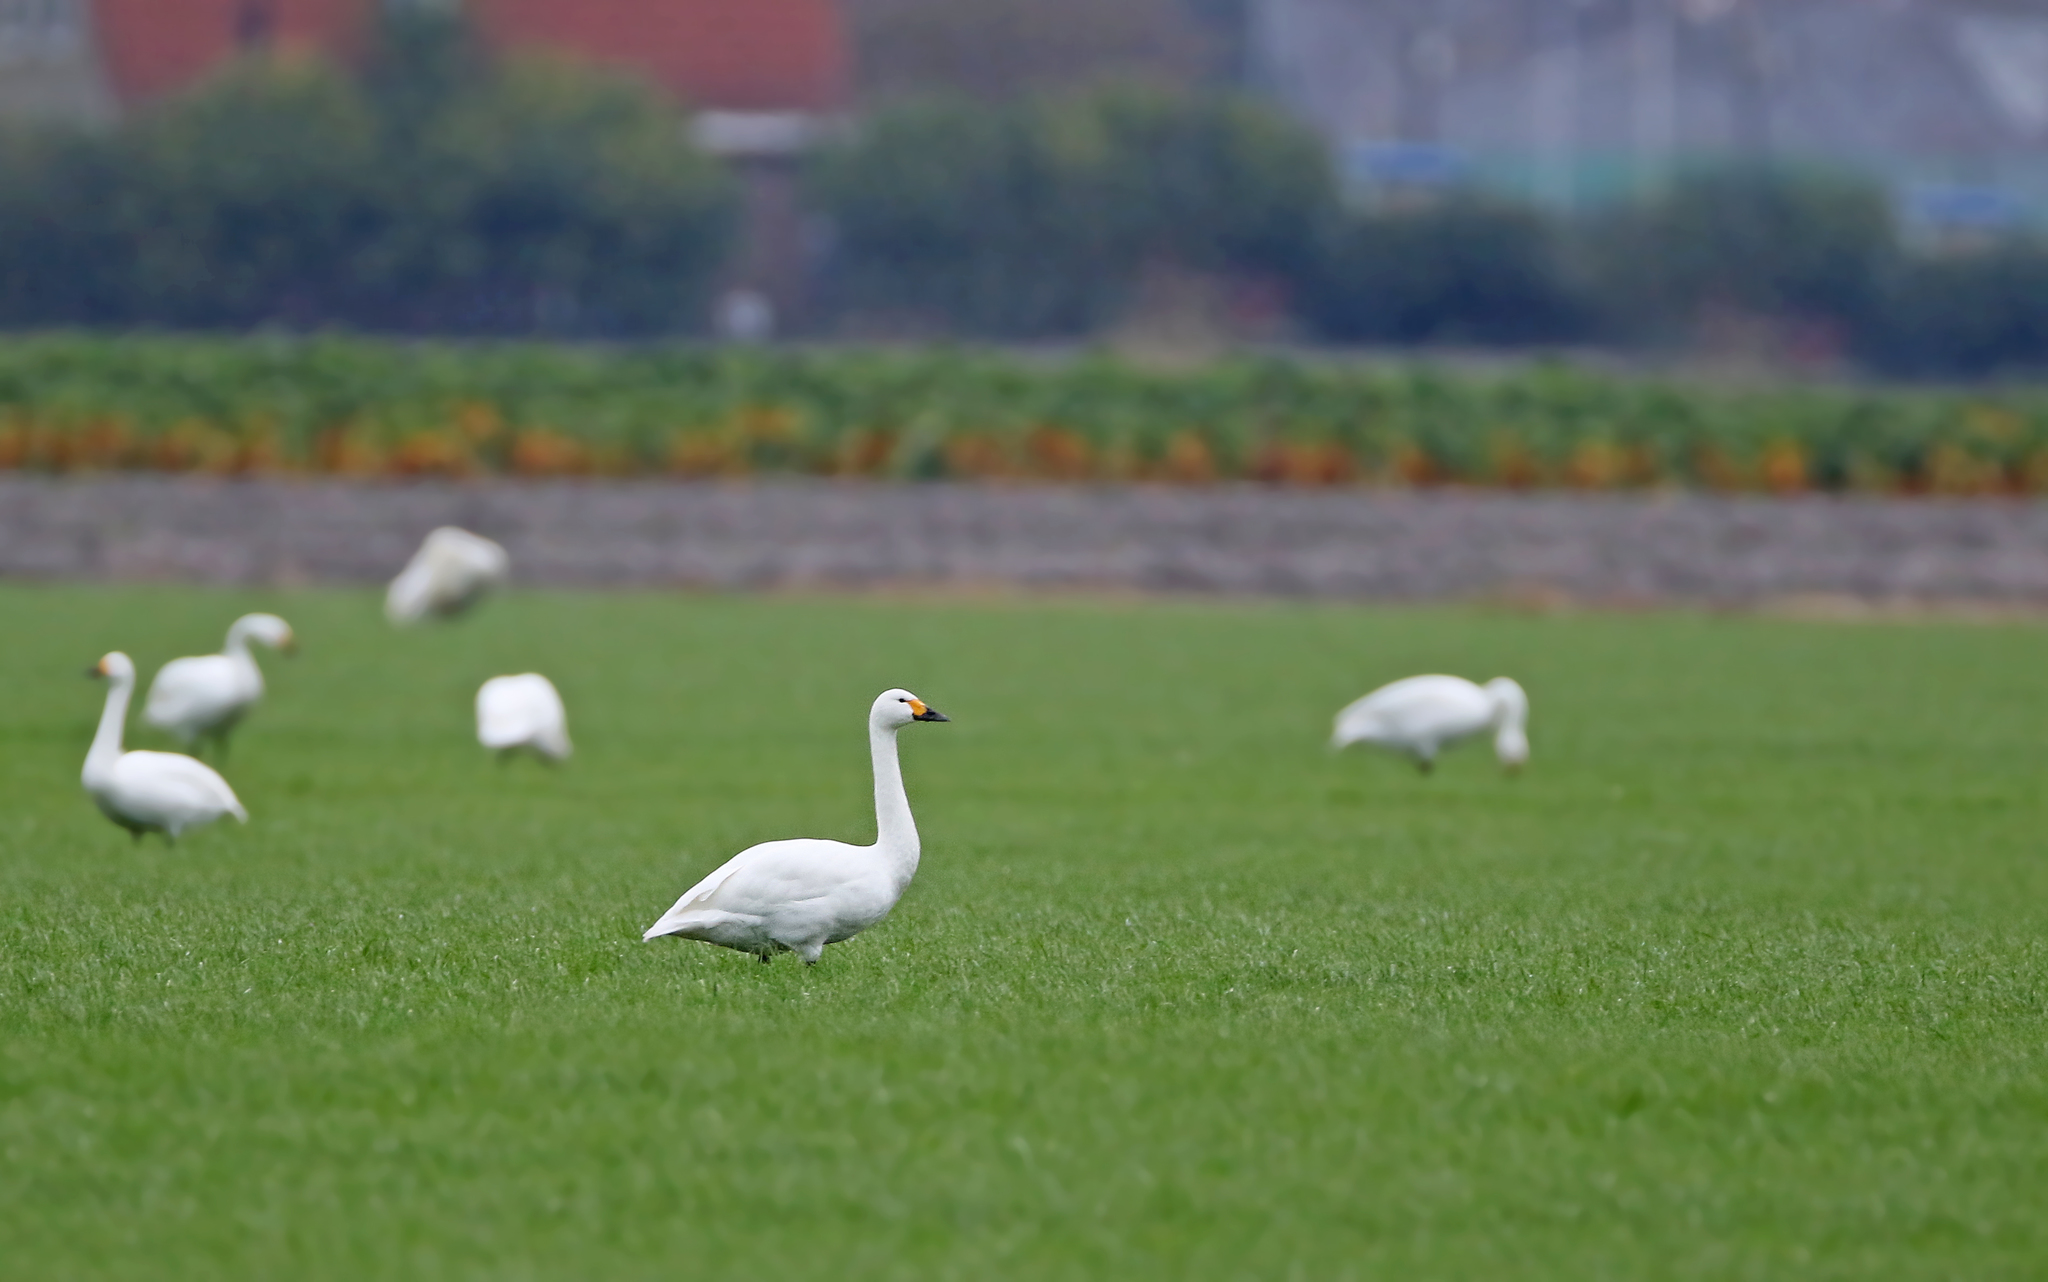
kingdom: Animalia
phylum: Chordata
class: Aves
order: Anseriformes
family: Anatidae
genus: Cygnus
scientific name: Cygnus columbianus
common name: Tundra swan
